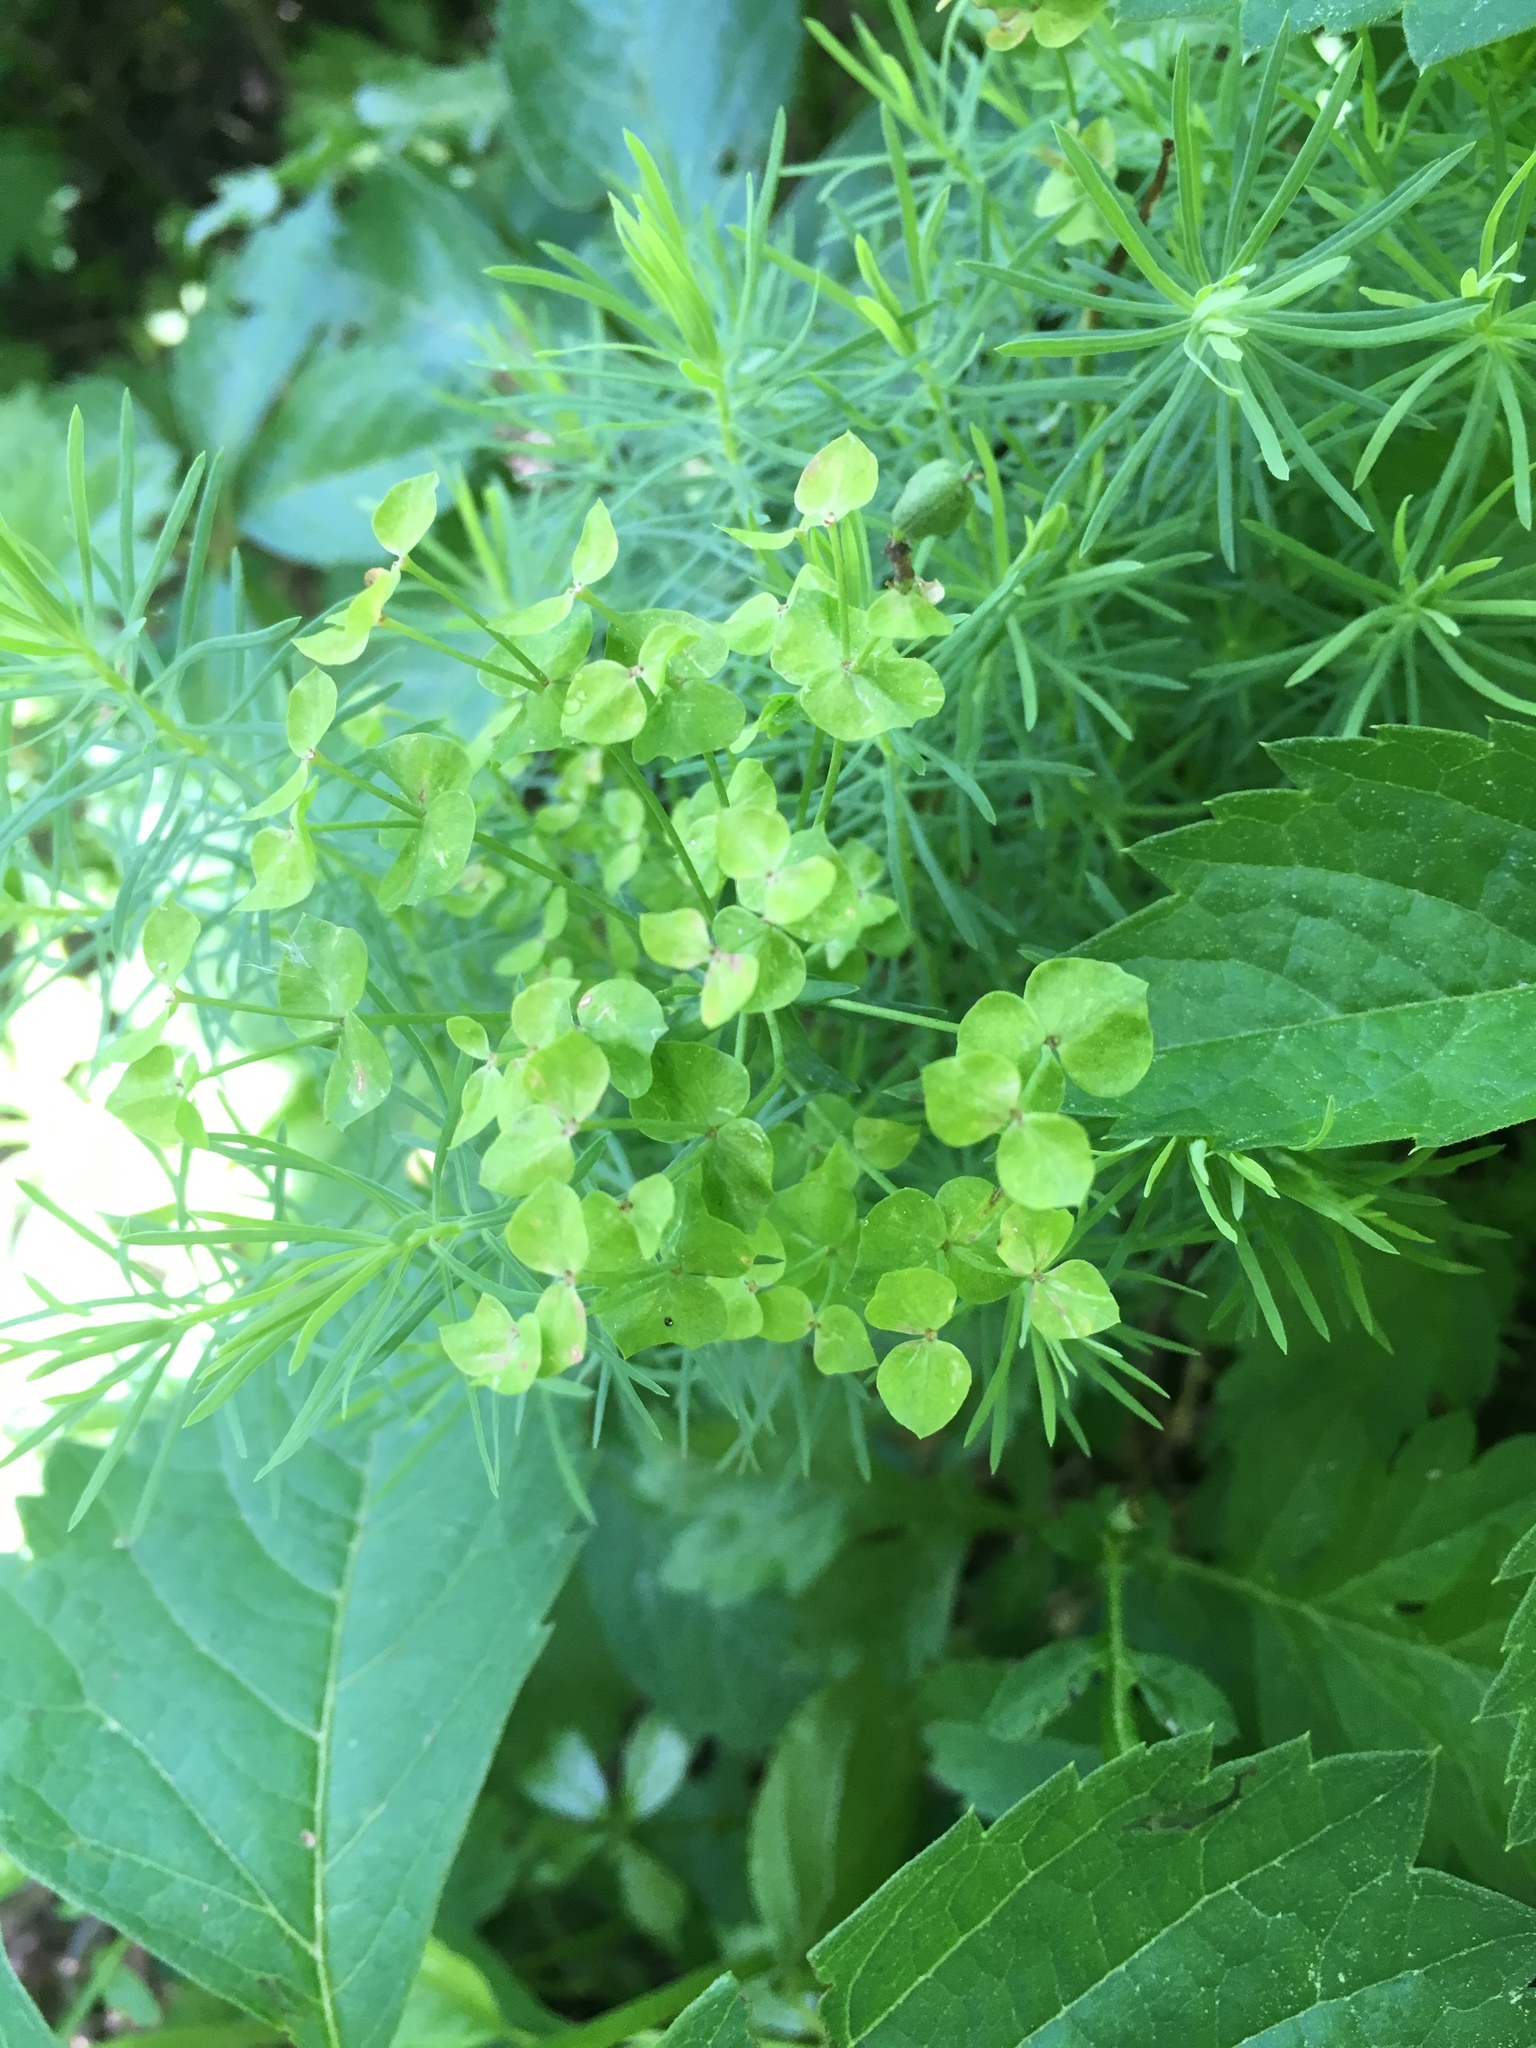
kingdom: Plantae
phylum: Tracheophyta
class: Magnoliopsida
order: Malpighiales
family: Euphorbiaceae
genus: Euphorbia
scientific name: Euphorbia cyparissias
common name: Cypress spurge
